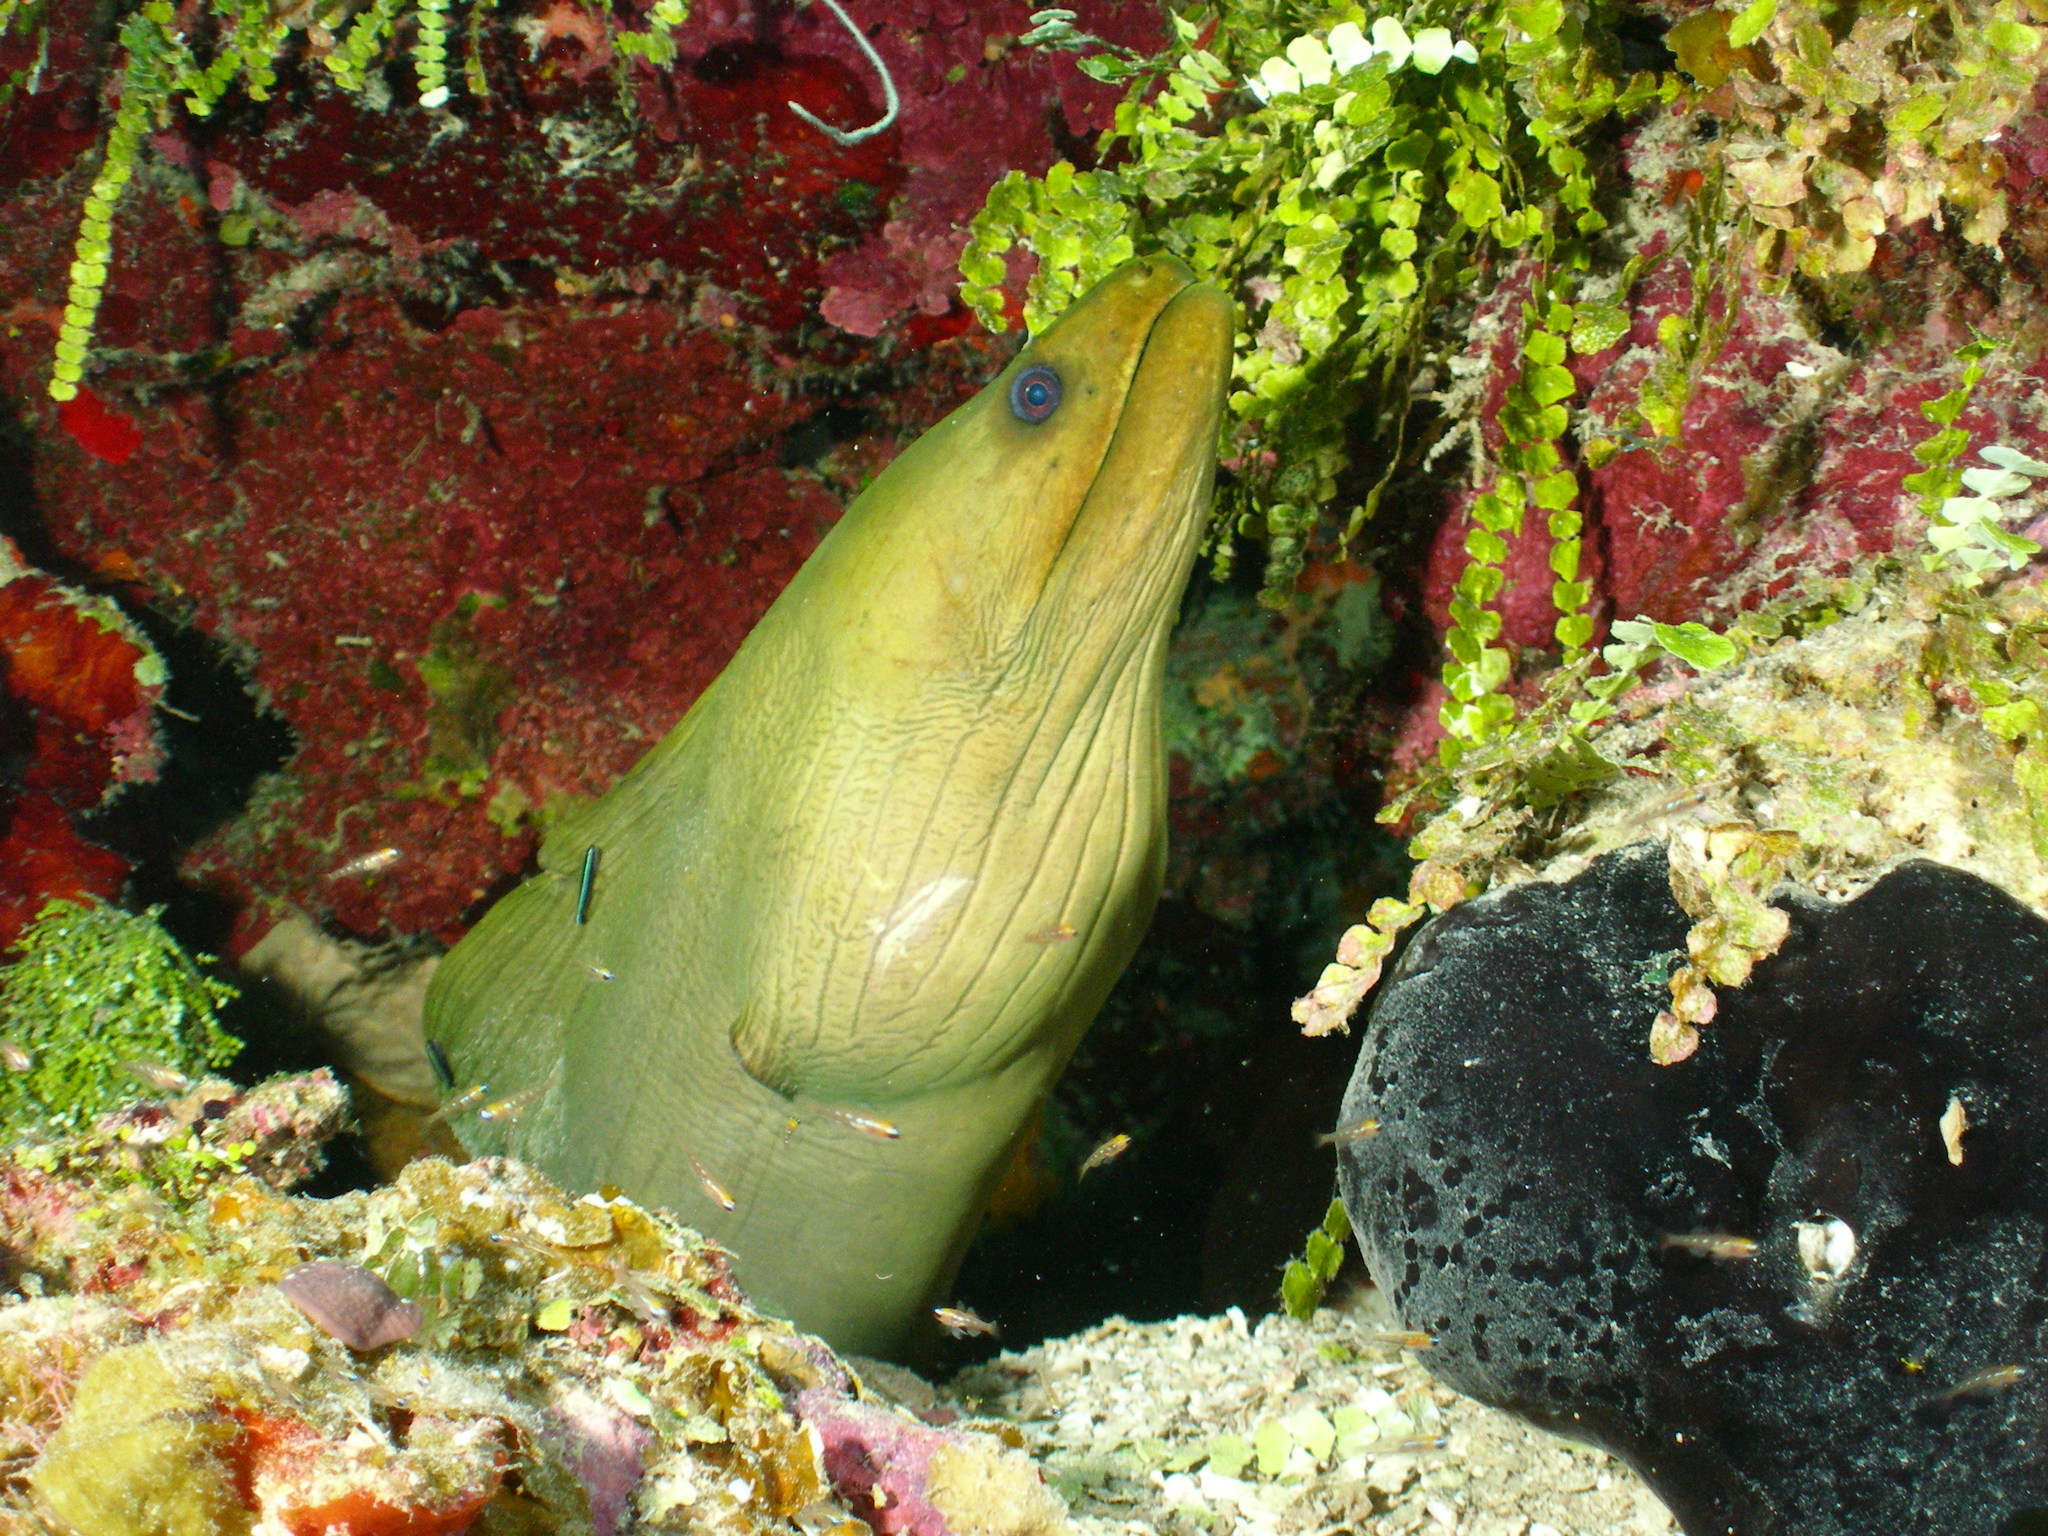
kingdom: Animalia
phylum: Chordata
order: Anguilliformes
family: Muraenidae
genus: Gymnothorax
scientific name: Gymnothorax funebris
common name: Green moray
